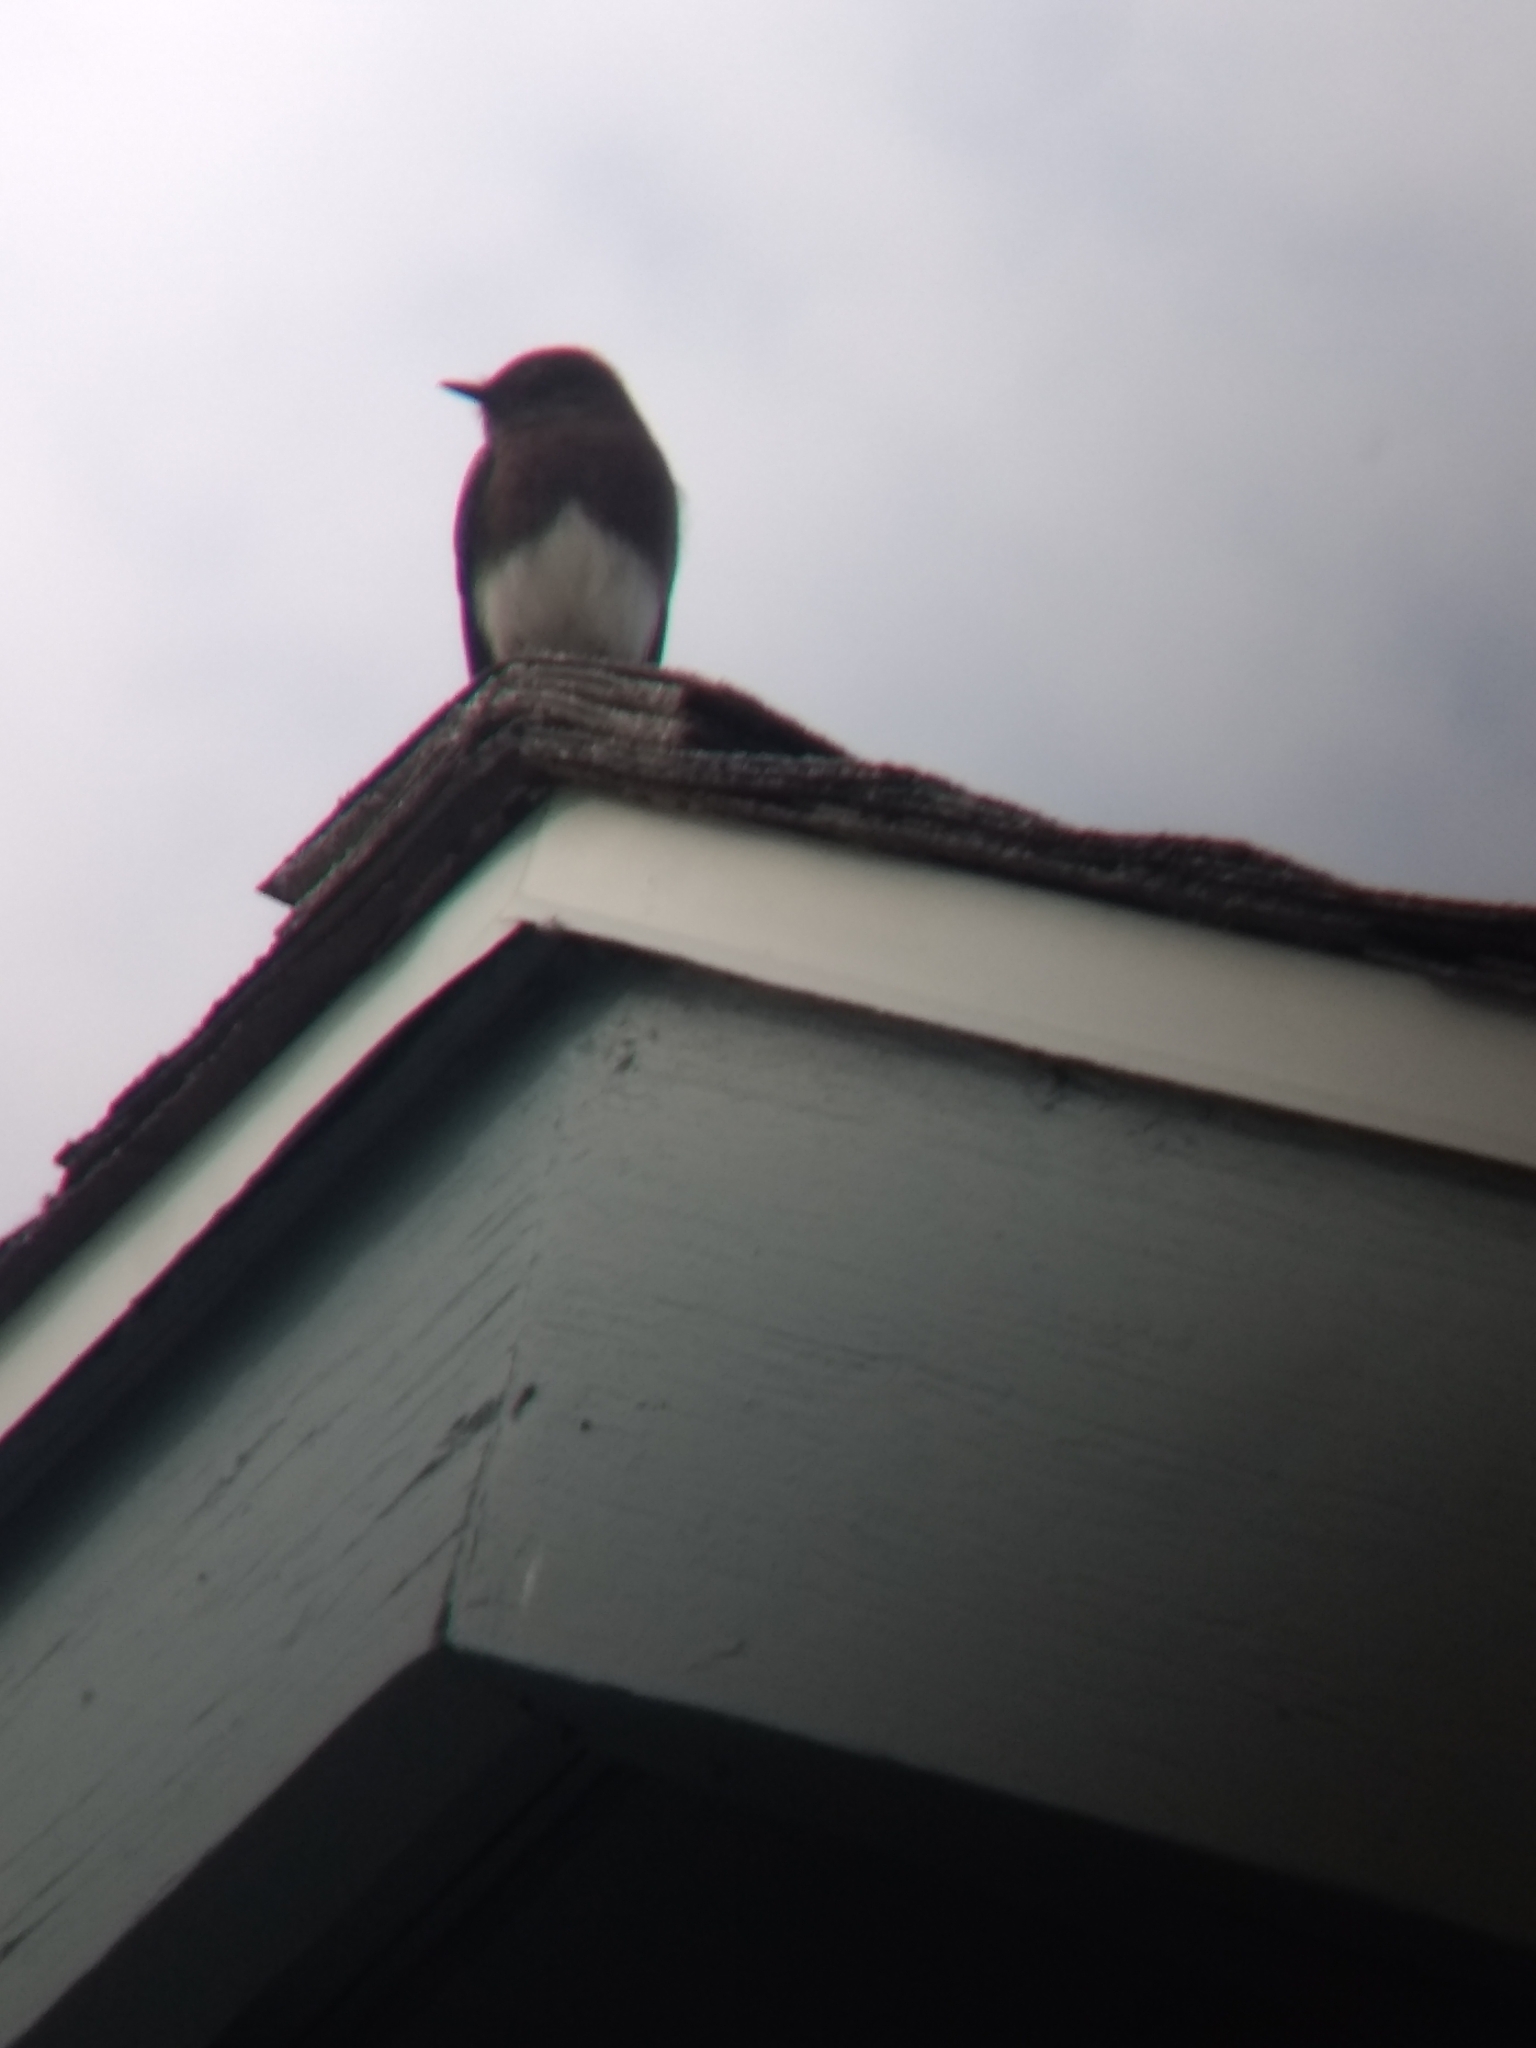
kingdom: Animalia
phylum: Chordata
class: Aves
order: Passeriformes
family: Tyrannidae
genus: Sayornis
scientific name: Sayornis nigricans
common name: Black phoebe
